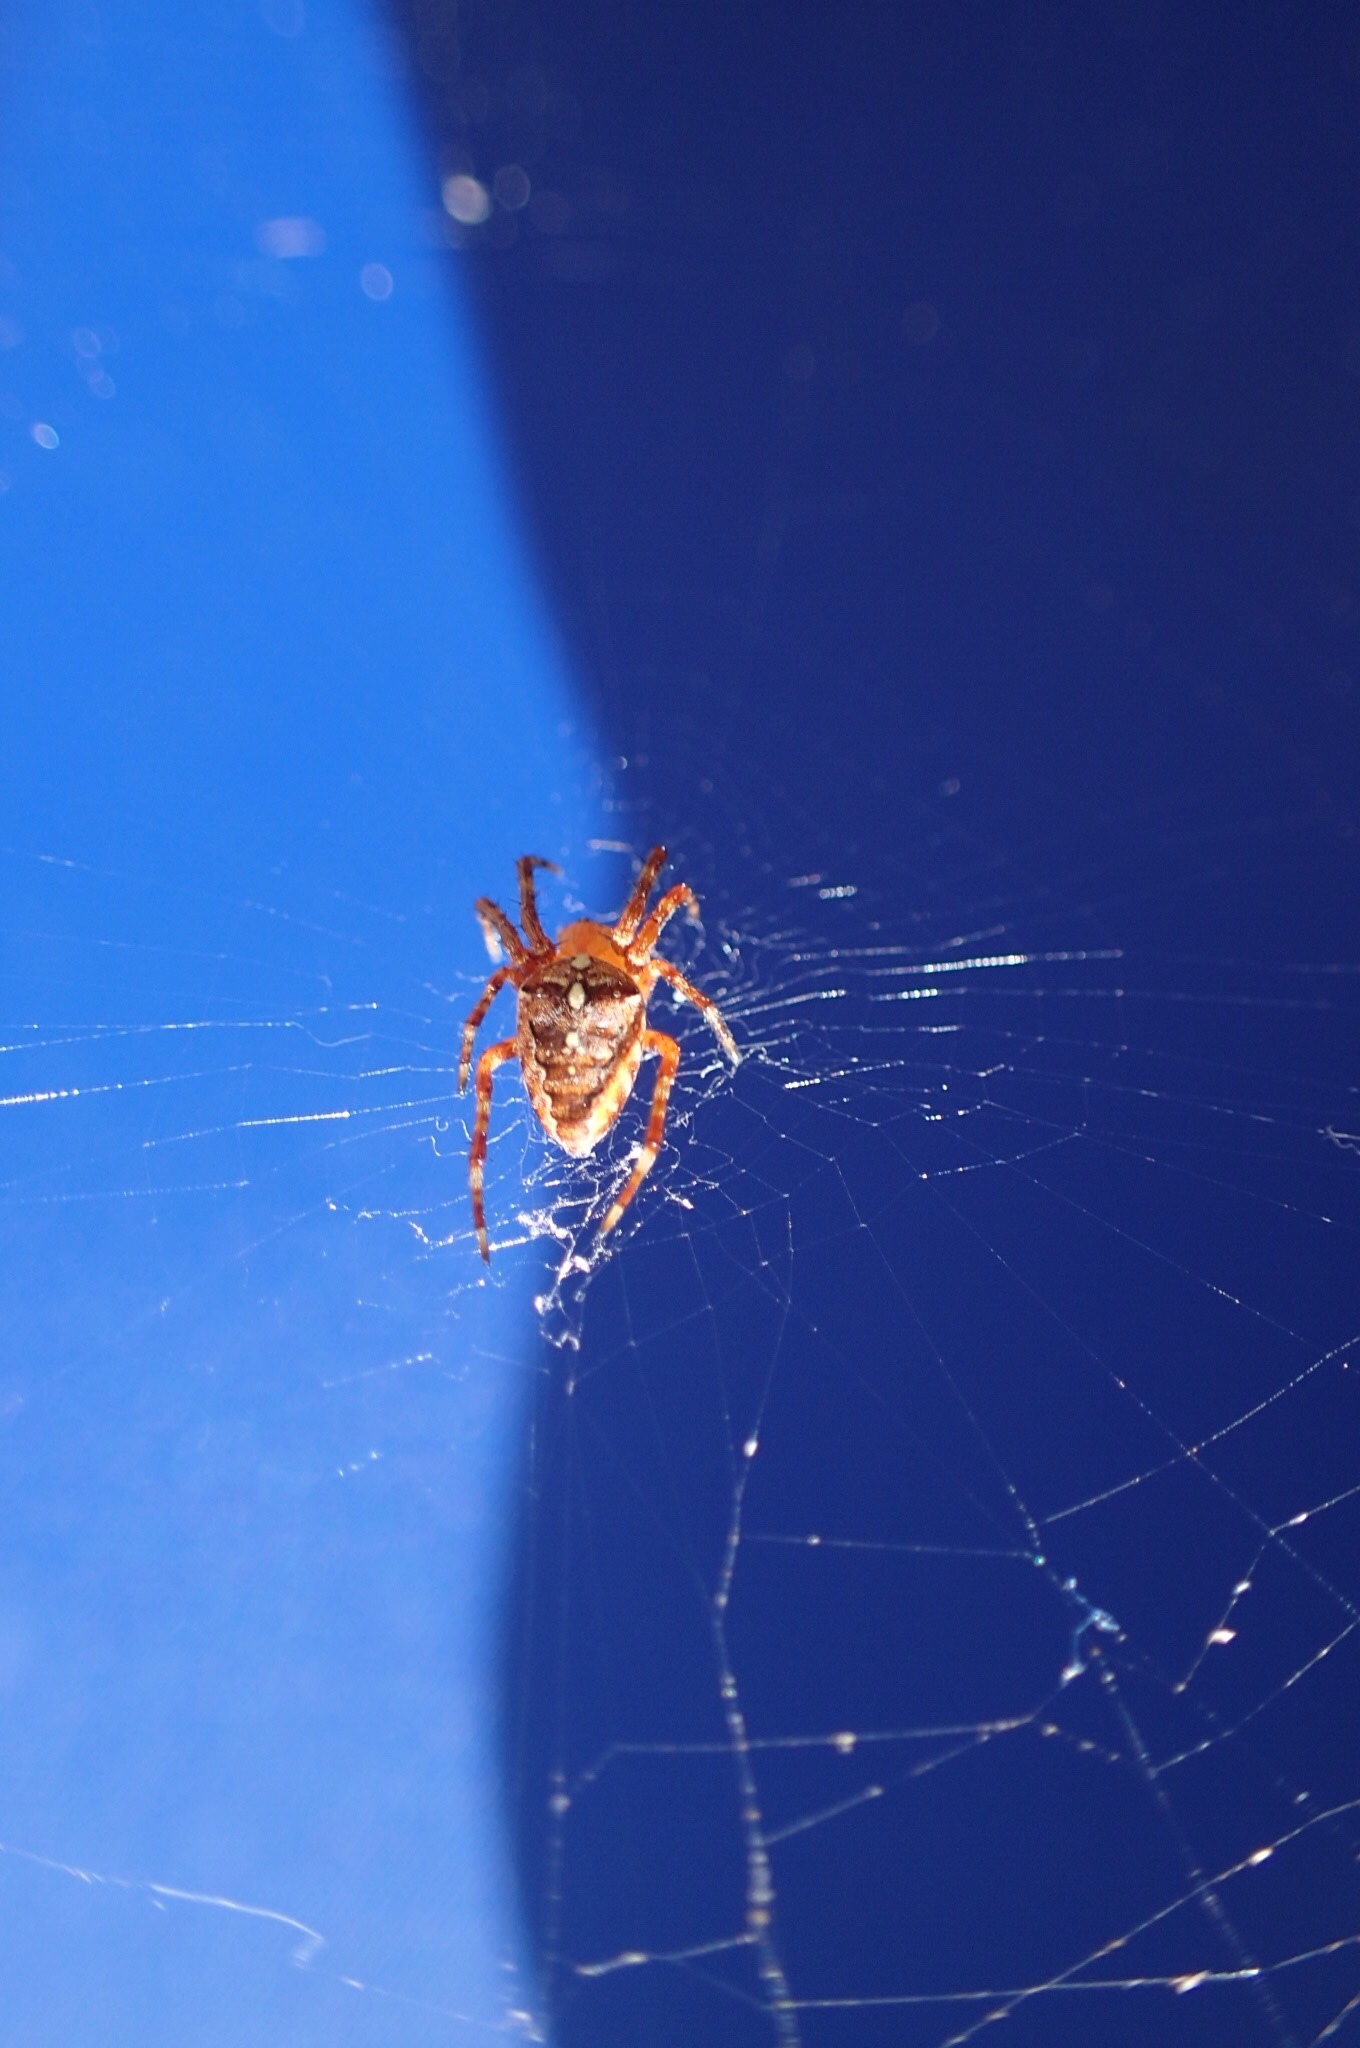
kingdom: Animalia
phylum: Arthropoda
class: Arachnida
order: Araneae
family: Araneidae
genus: Araneus
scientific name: Araneus diadematus
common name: Cross orbweaver
